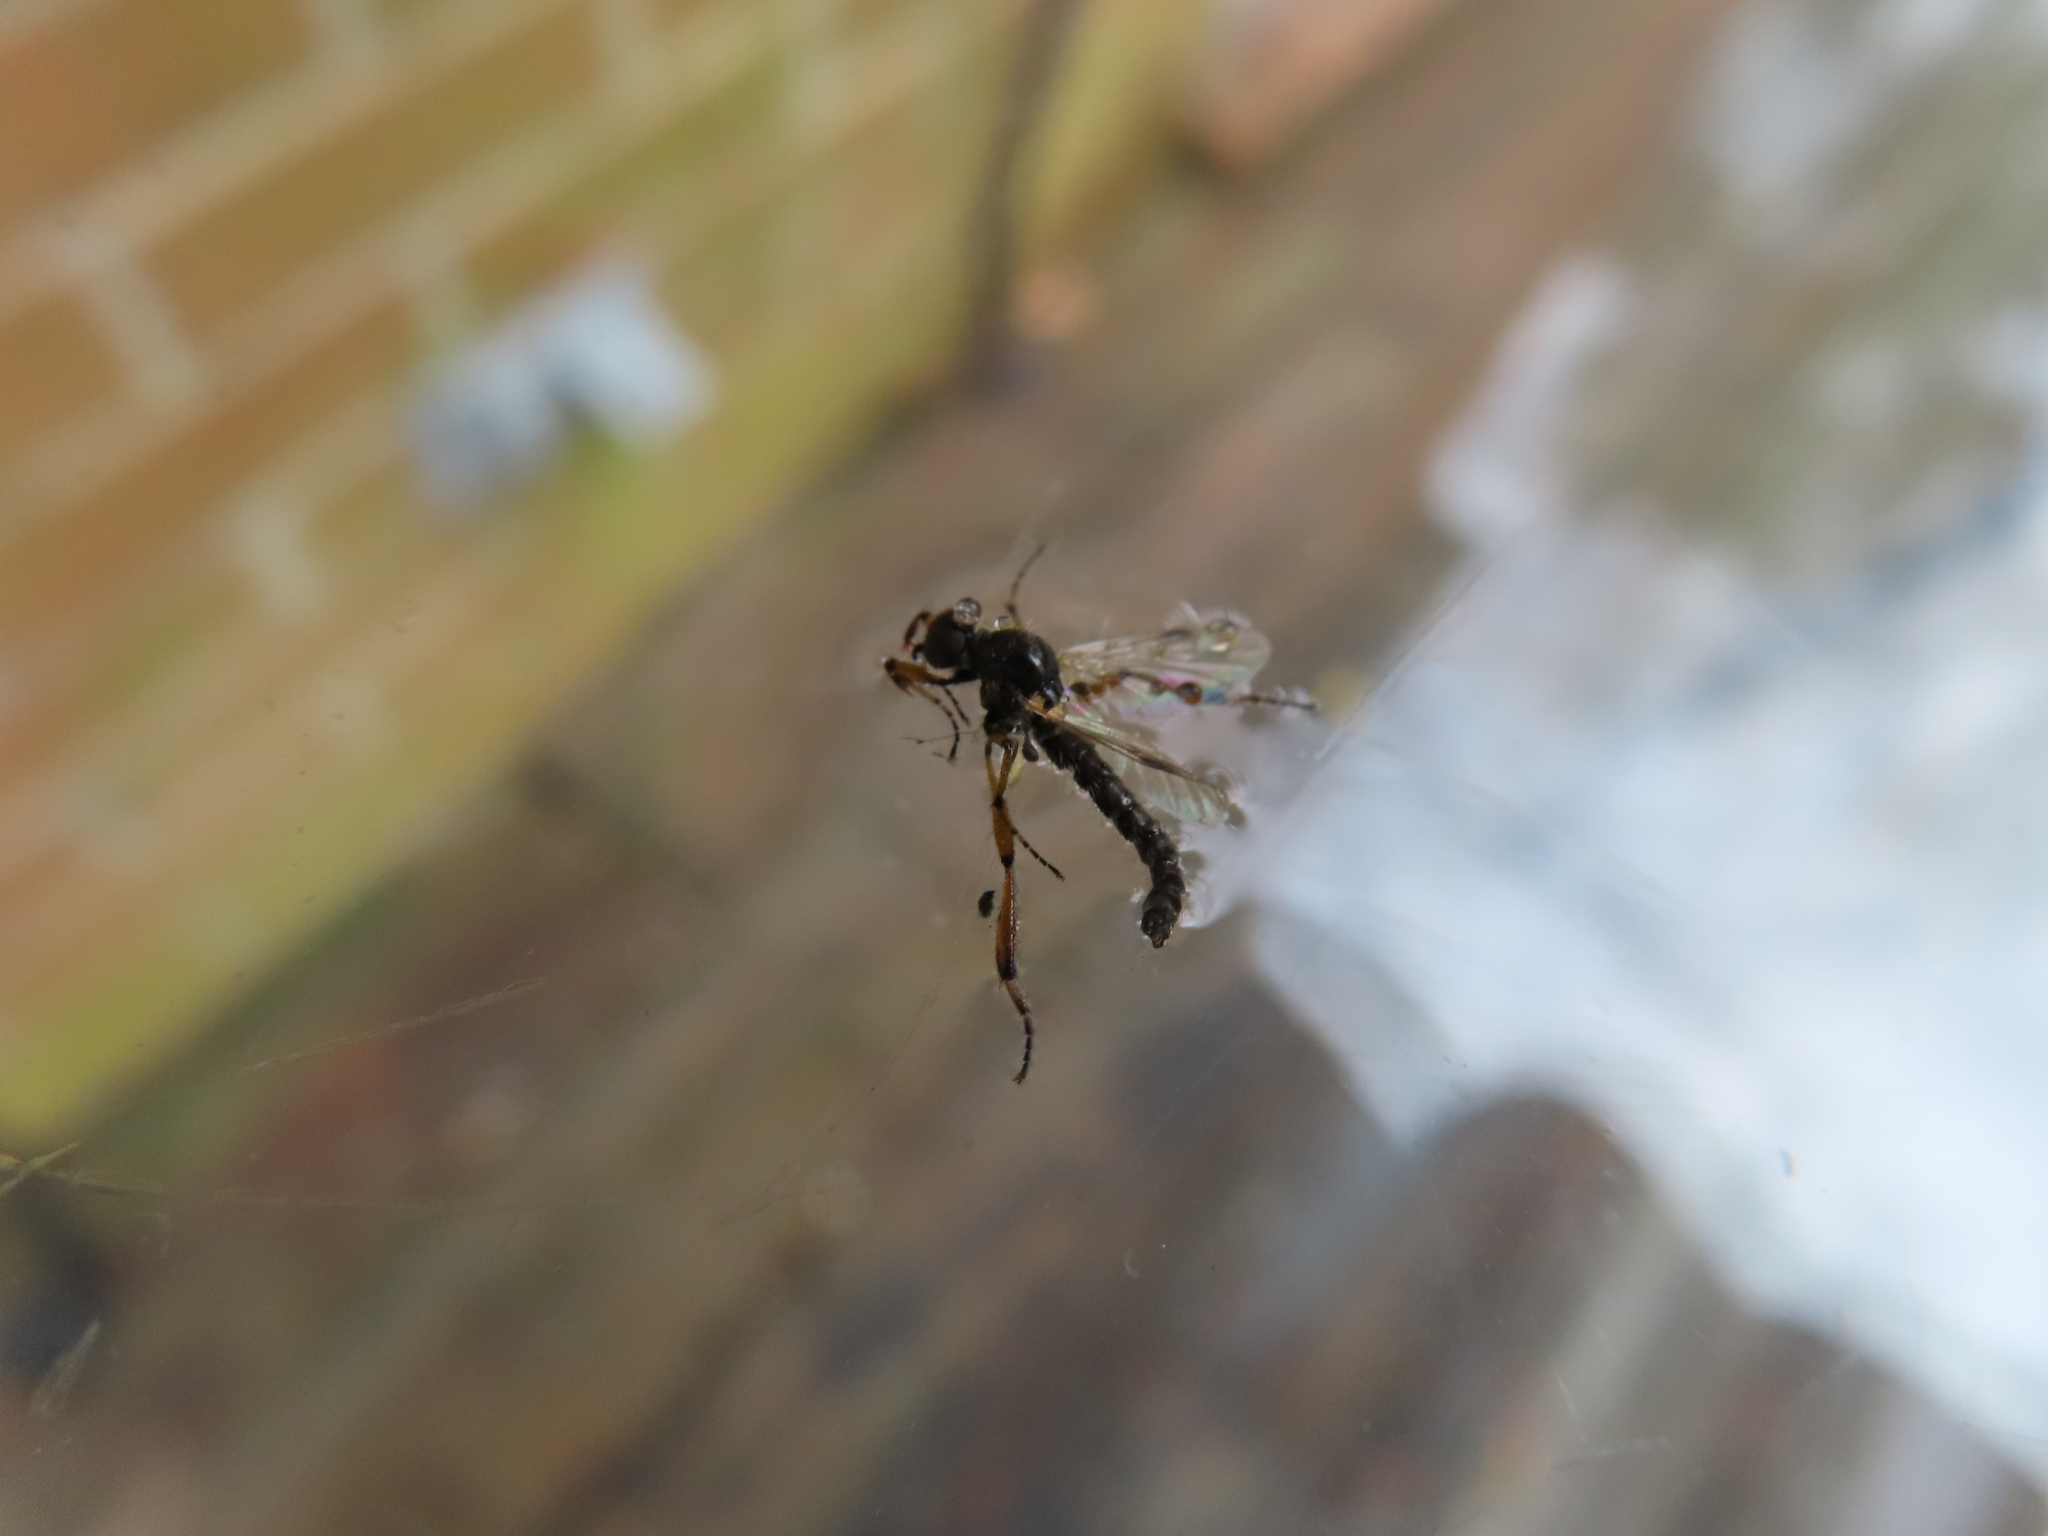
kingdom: Animalia
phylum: Arthropoda
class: Insecta
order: Diptera
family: Bibionidae
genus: Bibio
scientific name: Bibio
